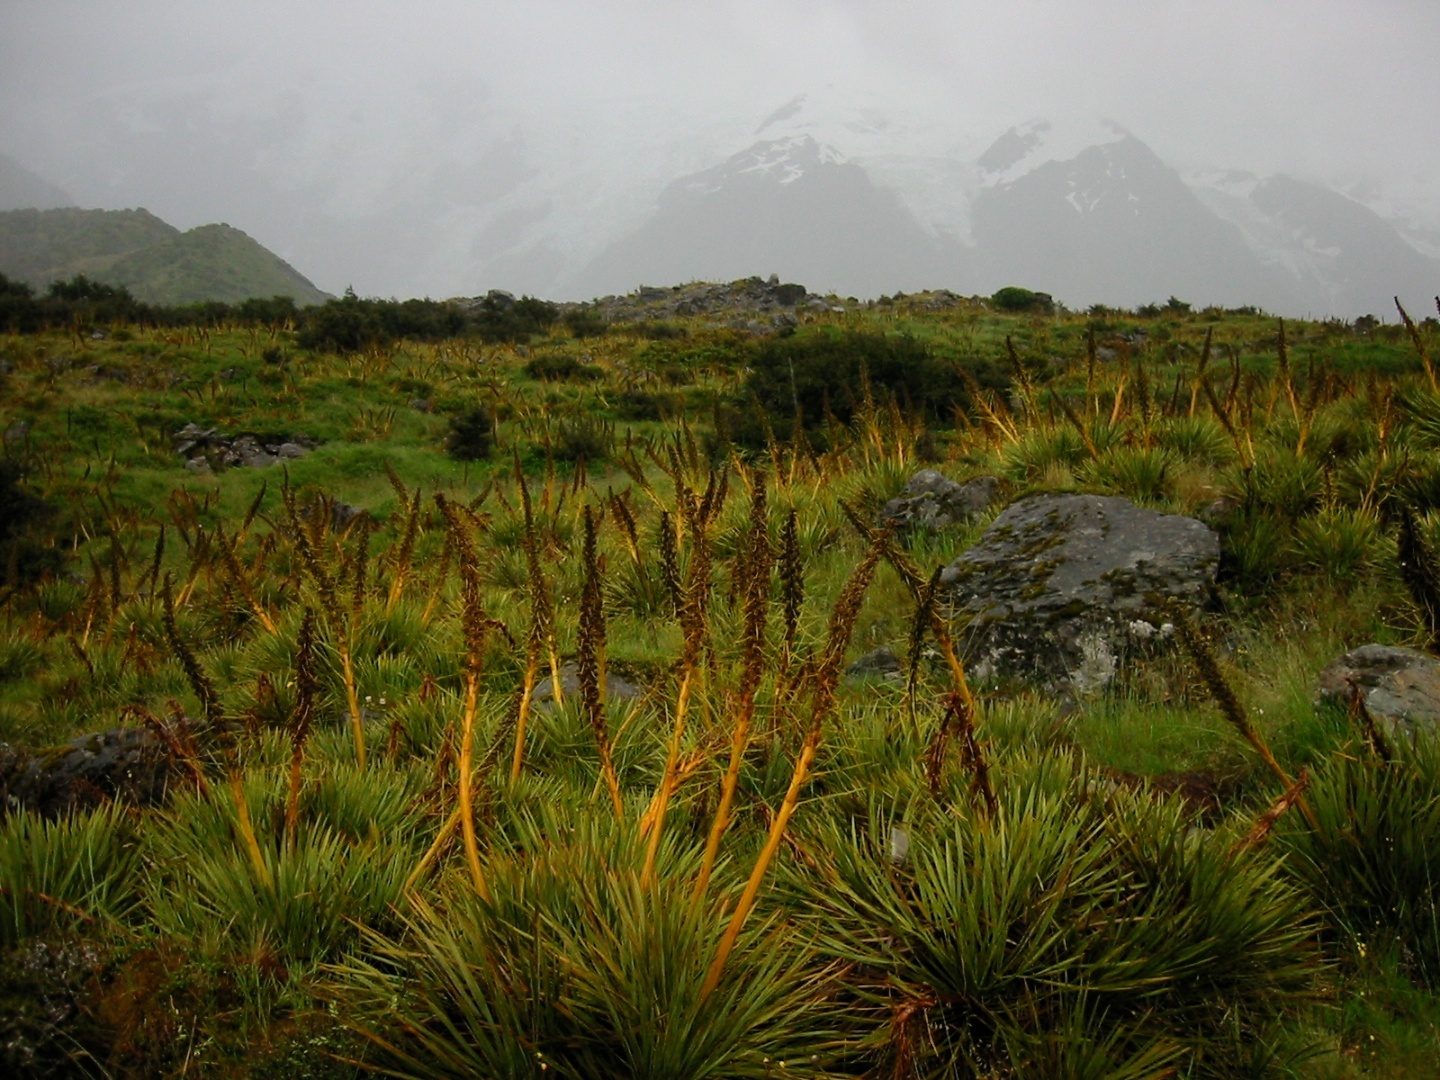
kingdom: Plantae
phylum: Tracheophyta
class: Magnoliopsida
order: Apiales
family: Apiaceae
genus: Aciphylla
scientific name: Aciphylla aurea
